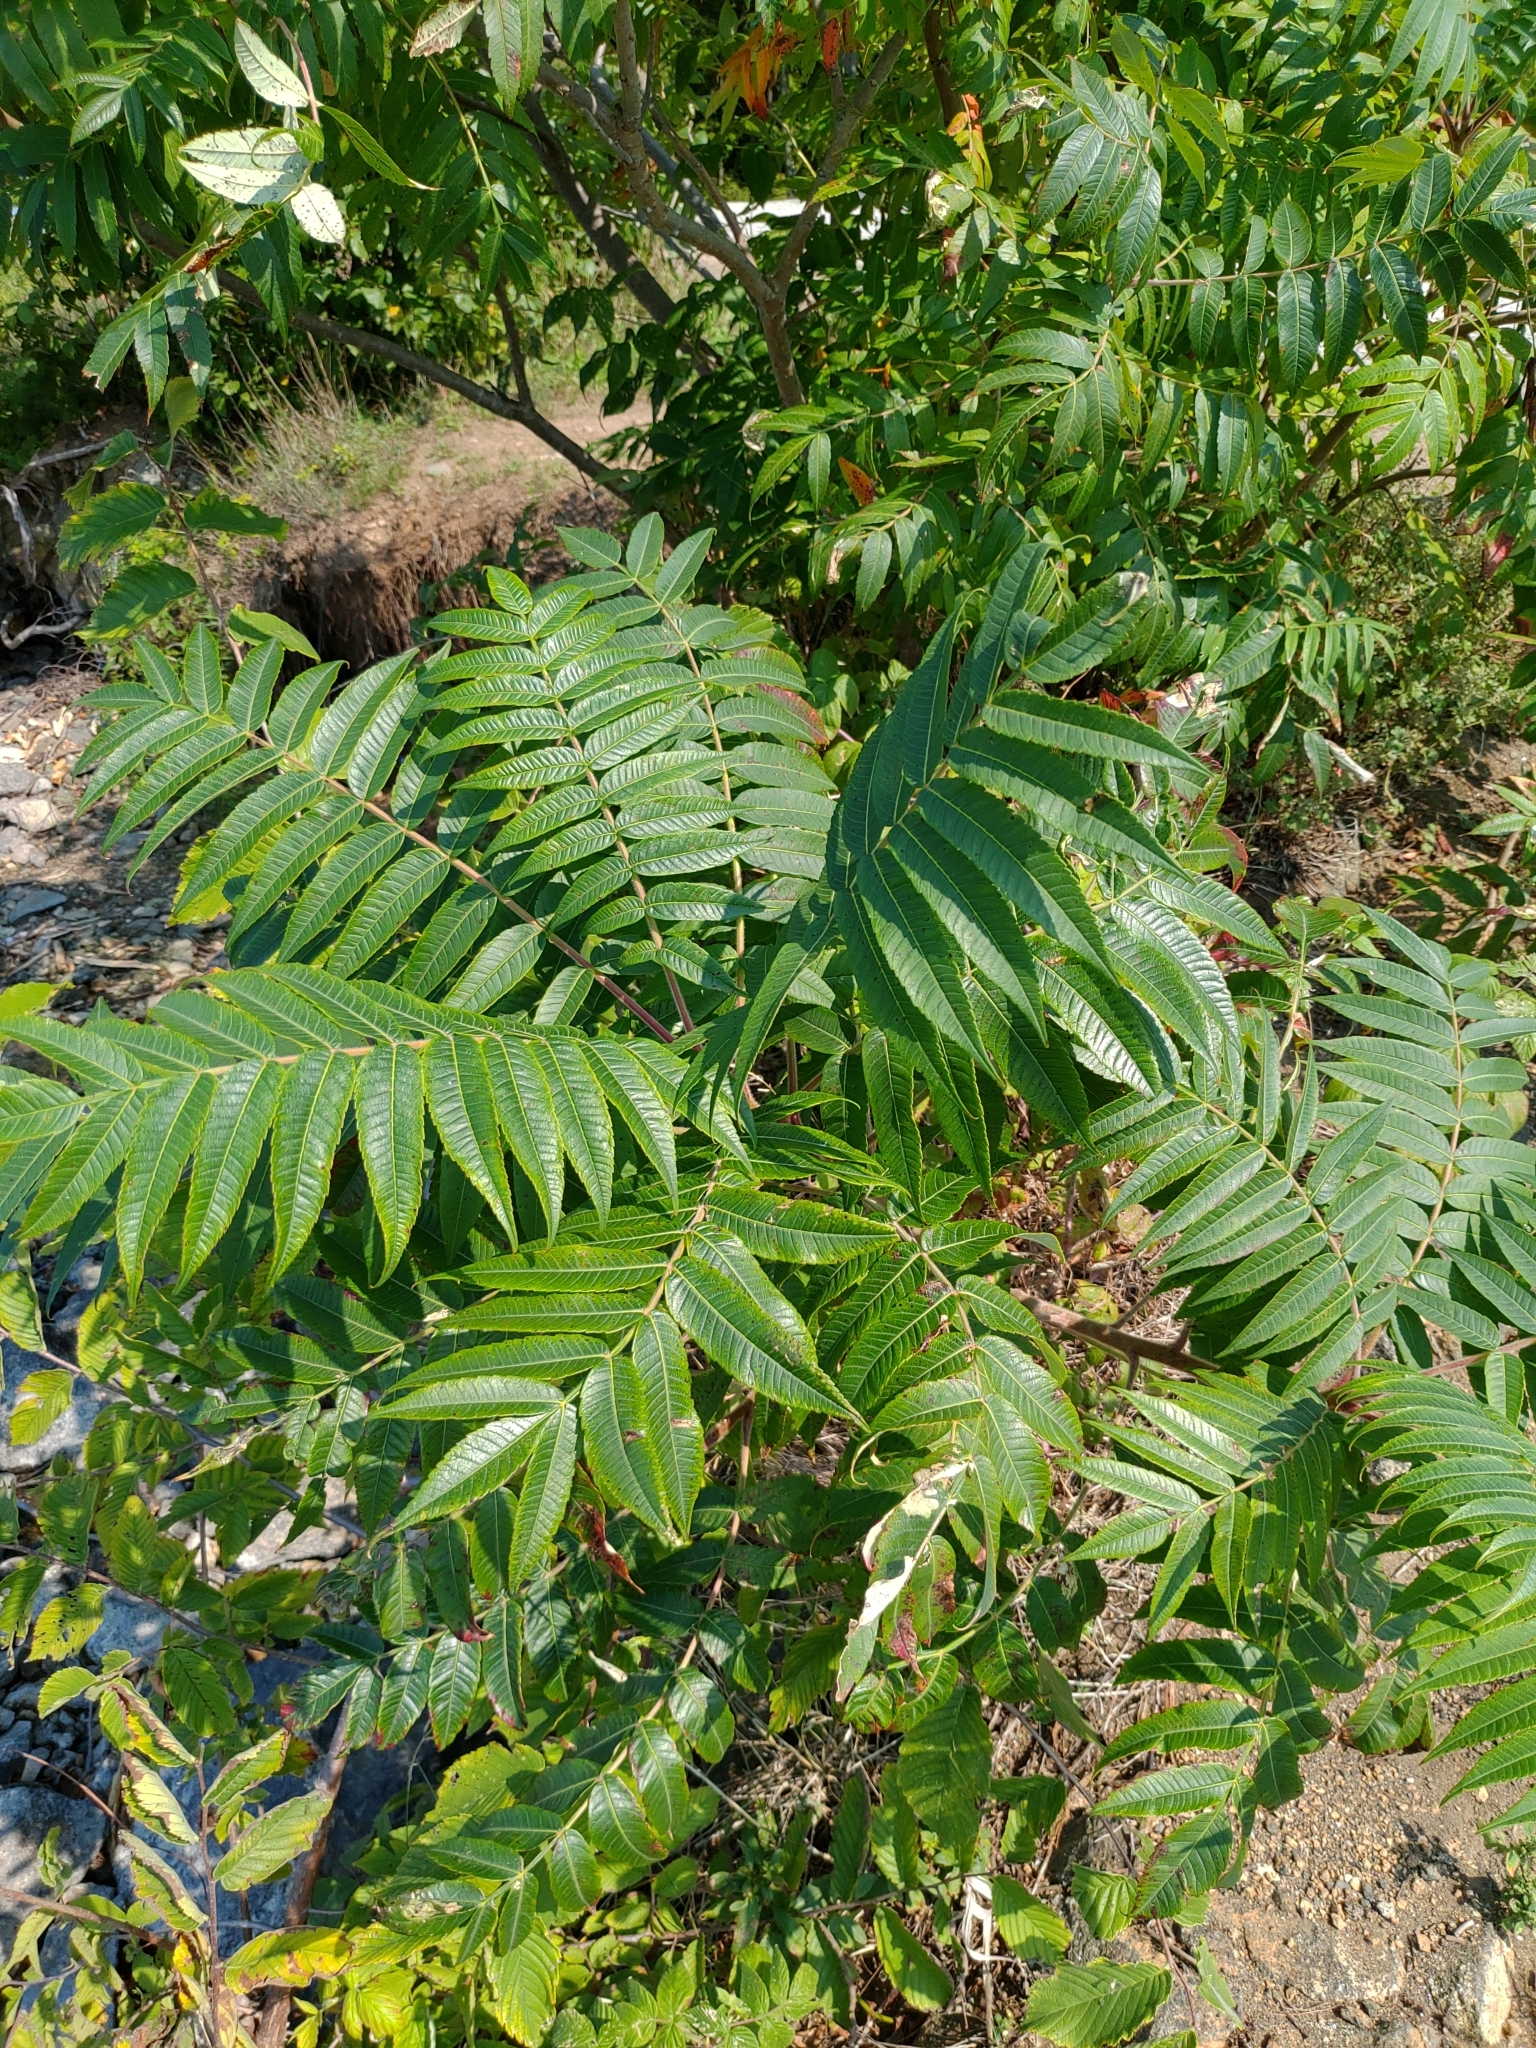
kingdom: Plantae
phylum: Tracheophyta
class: Magnoliopsida
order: Sapindales
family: Anacardiaceae
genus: Rhus
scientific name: Rhus typhina
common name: Staghorn sumac
